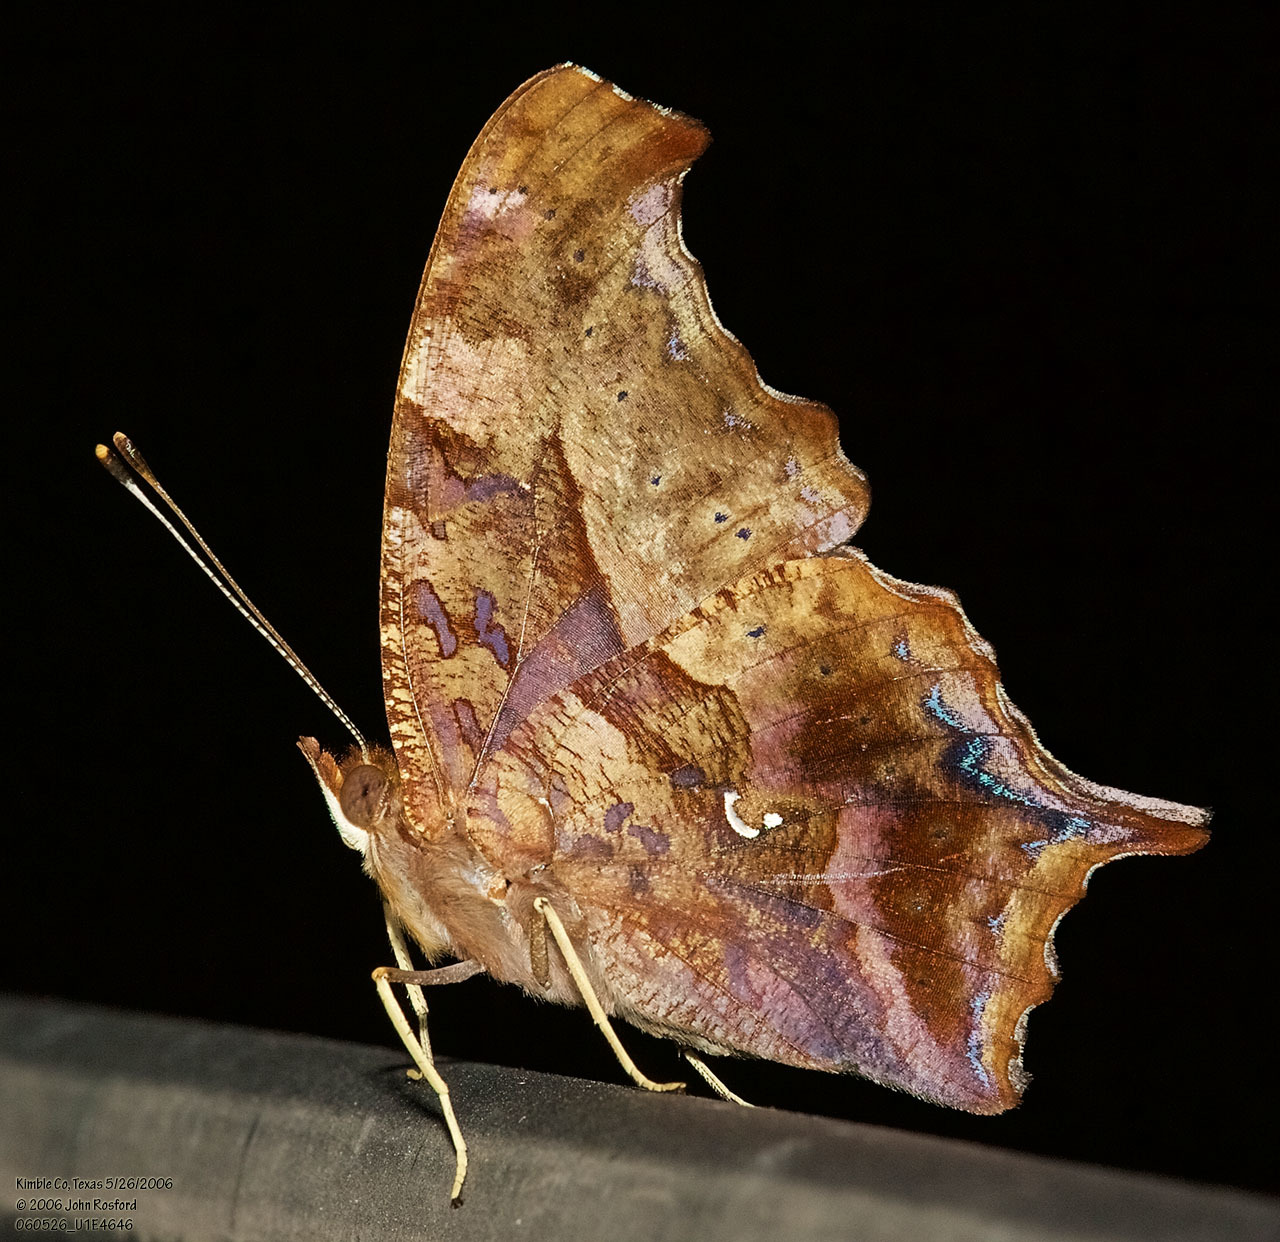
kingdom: Animalia
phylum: Arthropoda
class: Insecta
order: Lepidoptera
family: Nymphalidae
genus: Polygonia
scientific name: Polygonia interrogationis
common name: Question mark
